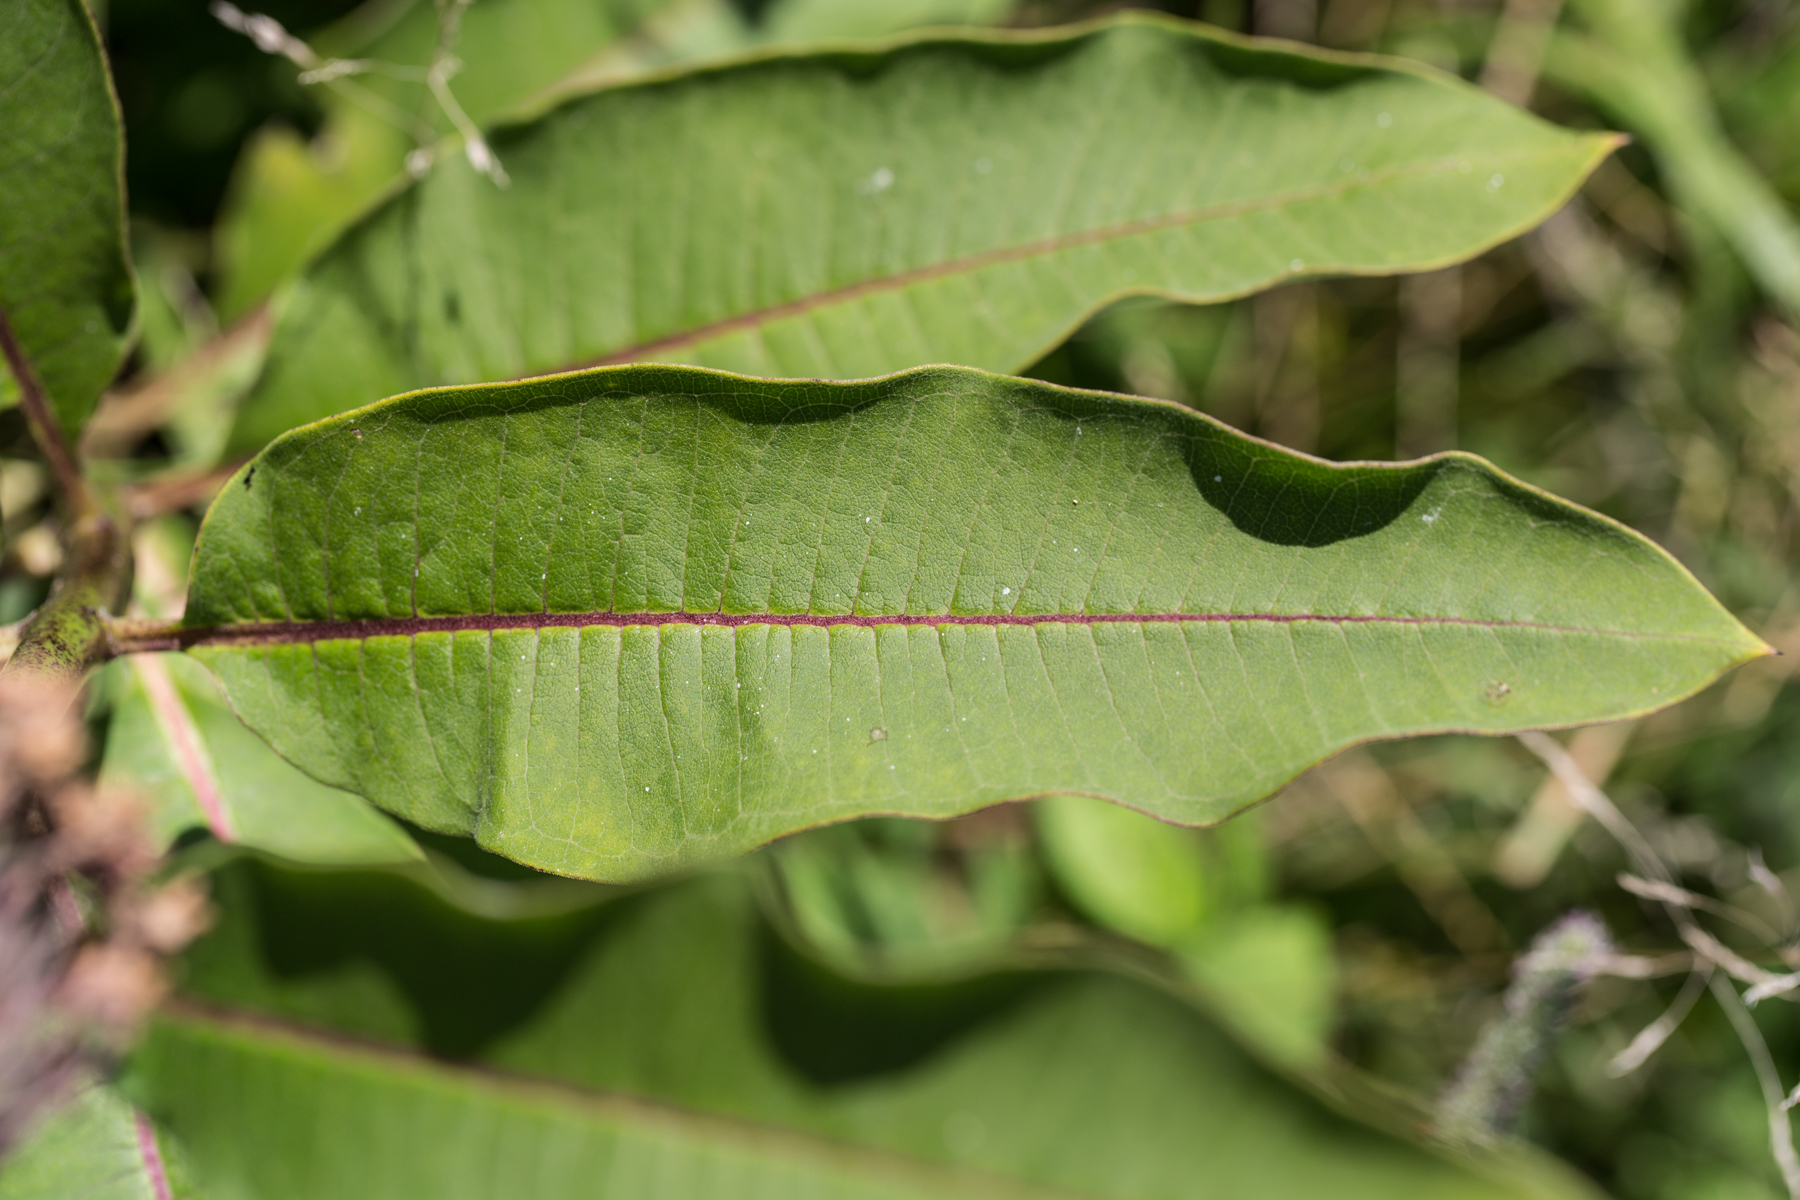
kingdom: Plantae
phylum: Tracheophyta
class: Magnoliopsida
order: Gentianales
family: Apocynaceae
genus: Asclepias
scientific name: Asclepias syriaca
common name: Common milkweed
